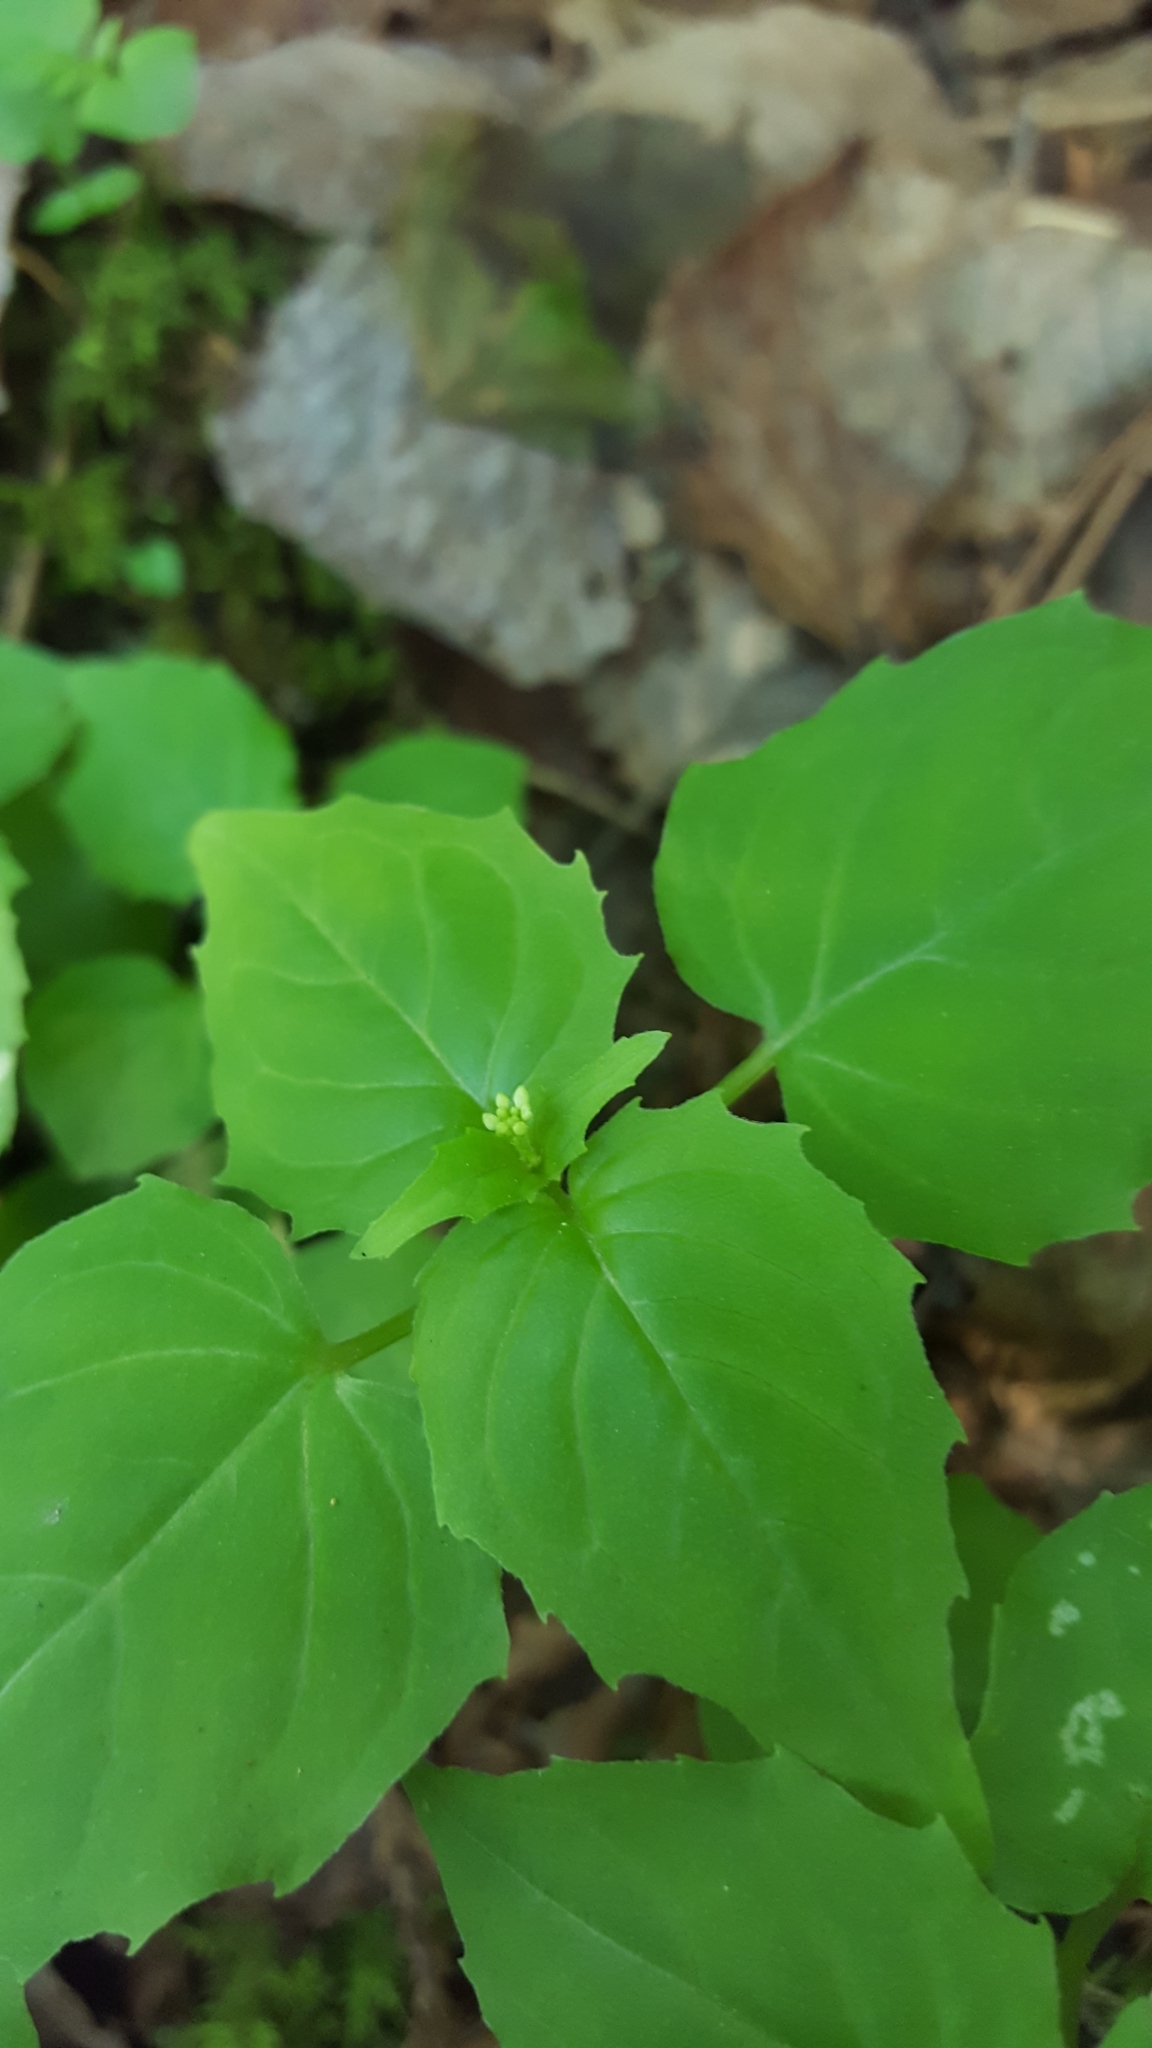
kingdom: Plantae
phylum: Tracheophyta
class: Magnoliopsida
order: Myrtales
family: Onagraceae
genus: Circaea
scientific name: Circaea alpina
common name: Alpine enchanter's-nightshade
